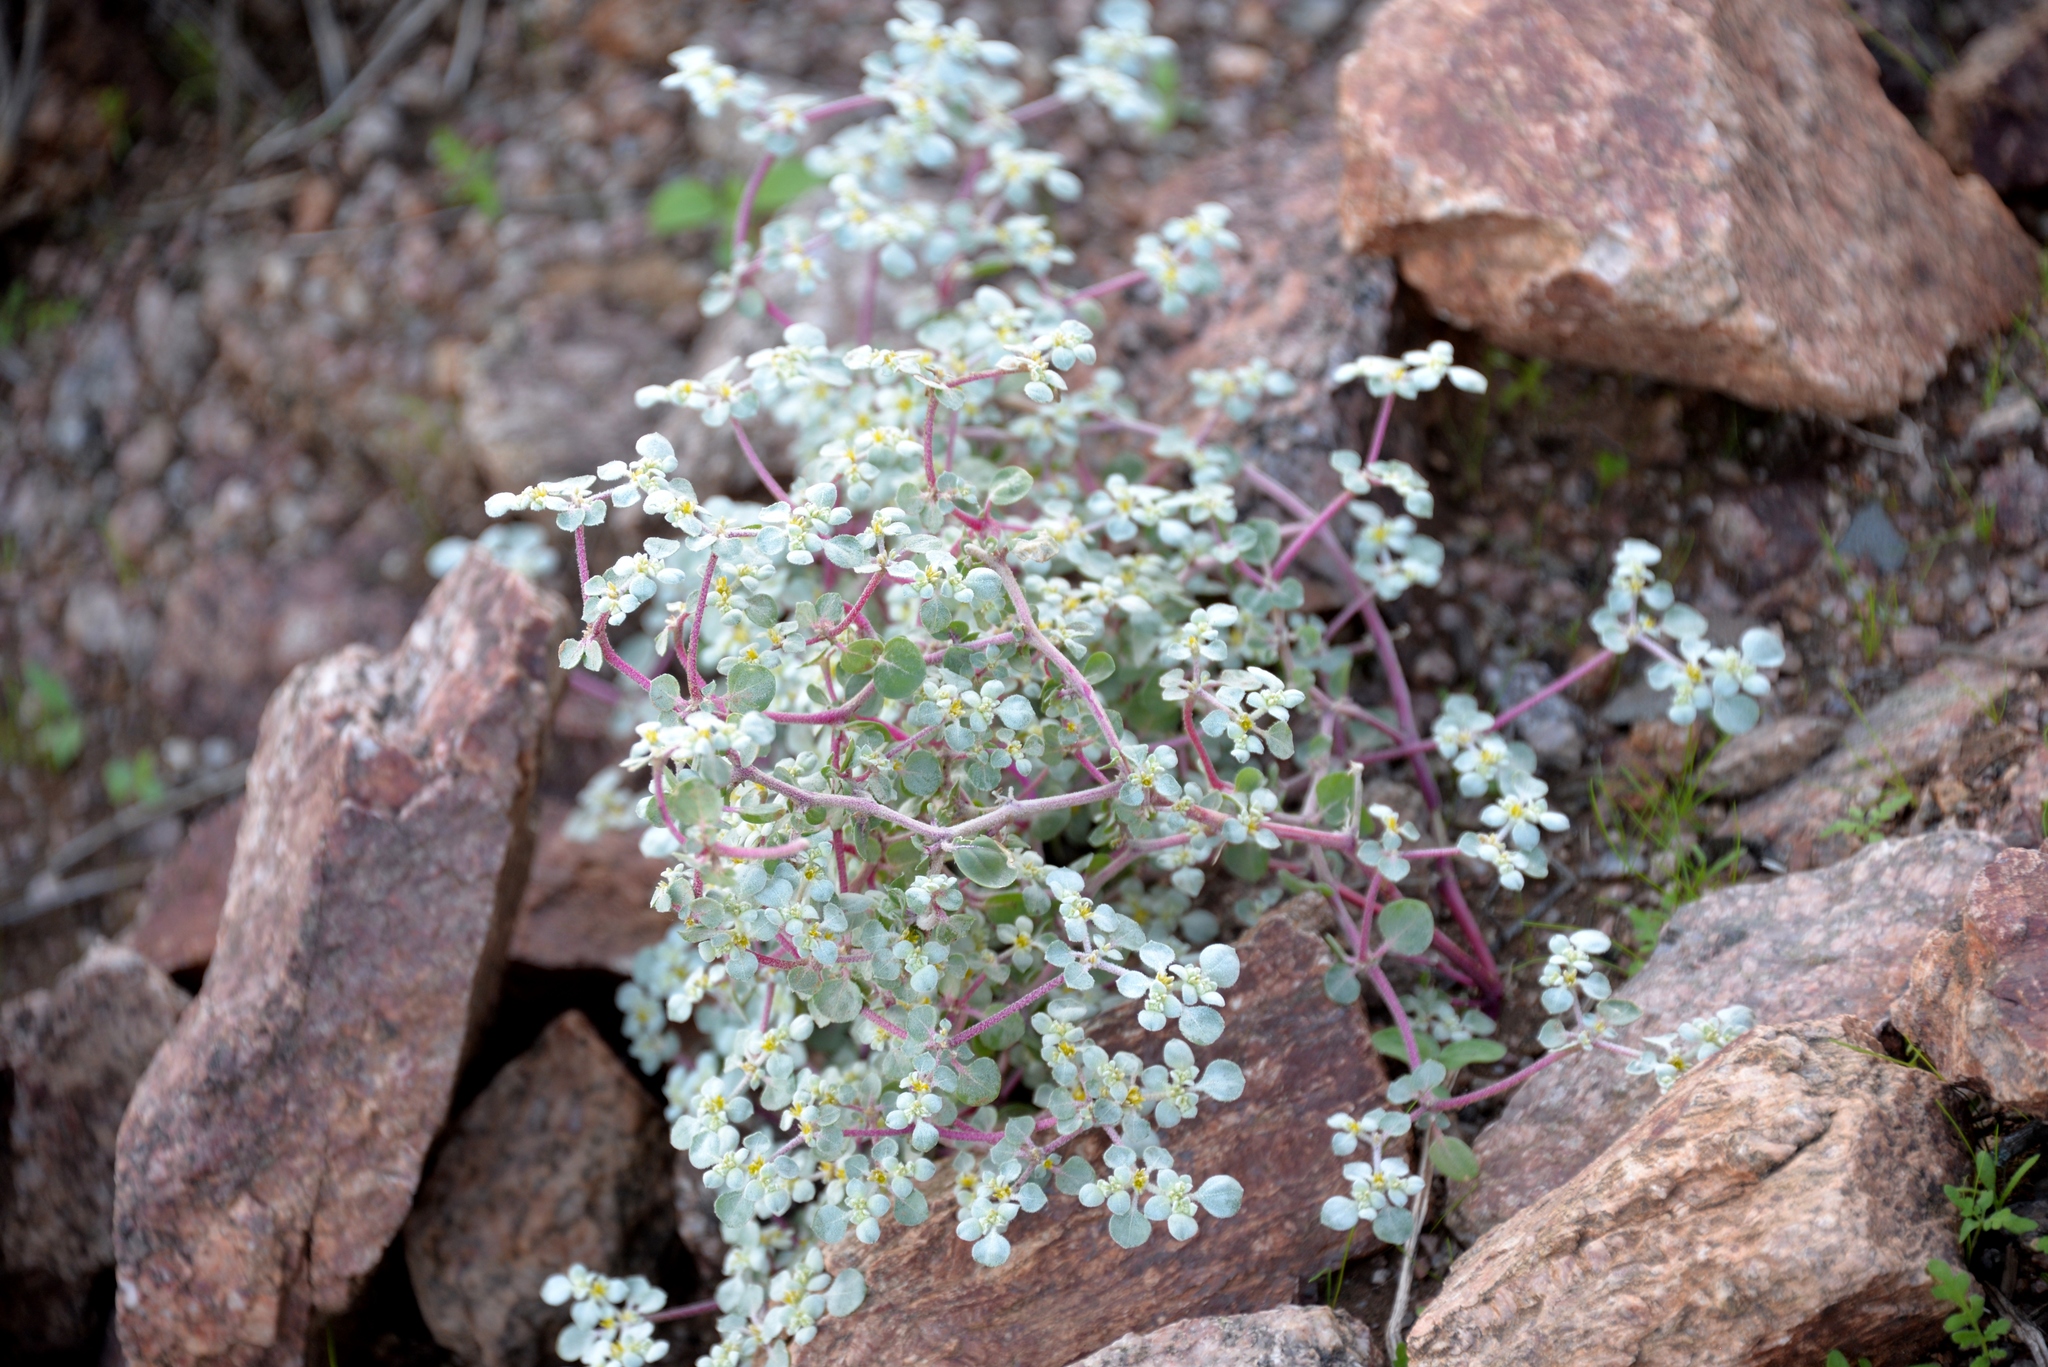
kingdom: Plantae
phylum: Tracheophyta
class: Magnoliopsida
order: Caryophyllales
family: Amaranthaceae
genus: Tidestromia
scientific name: Tidestromia lanuginosa
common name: Woolly tidestromia
